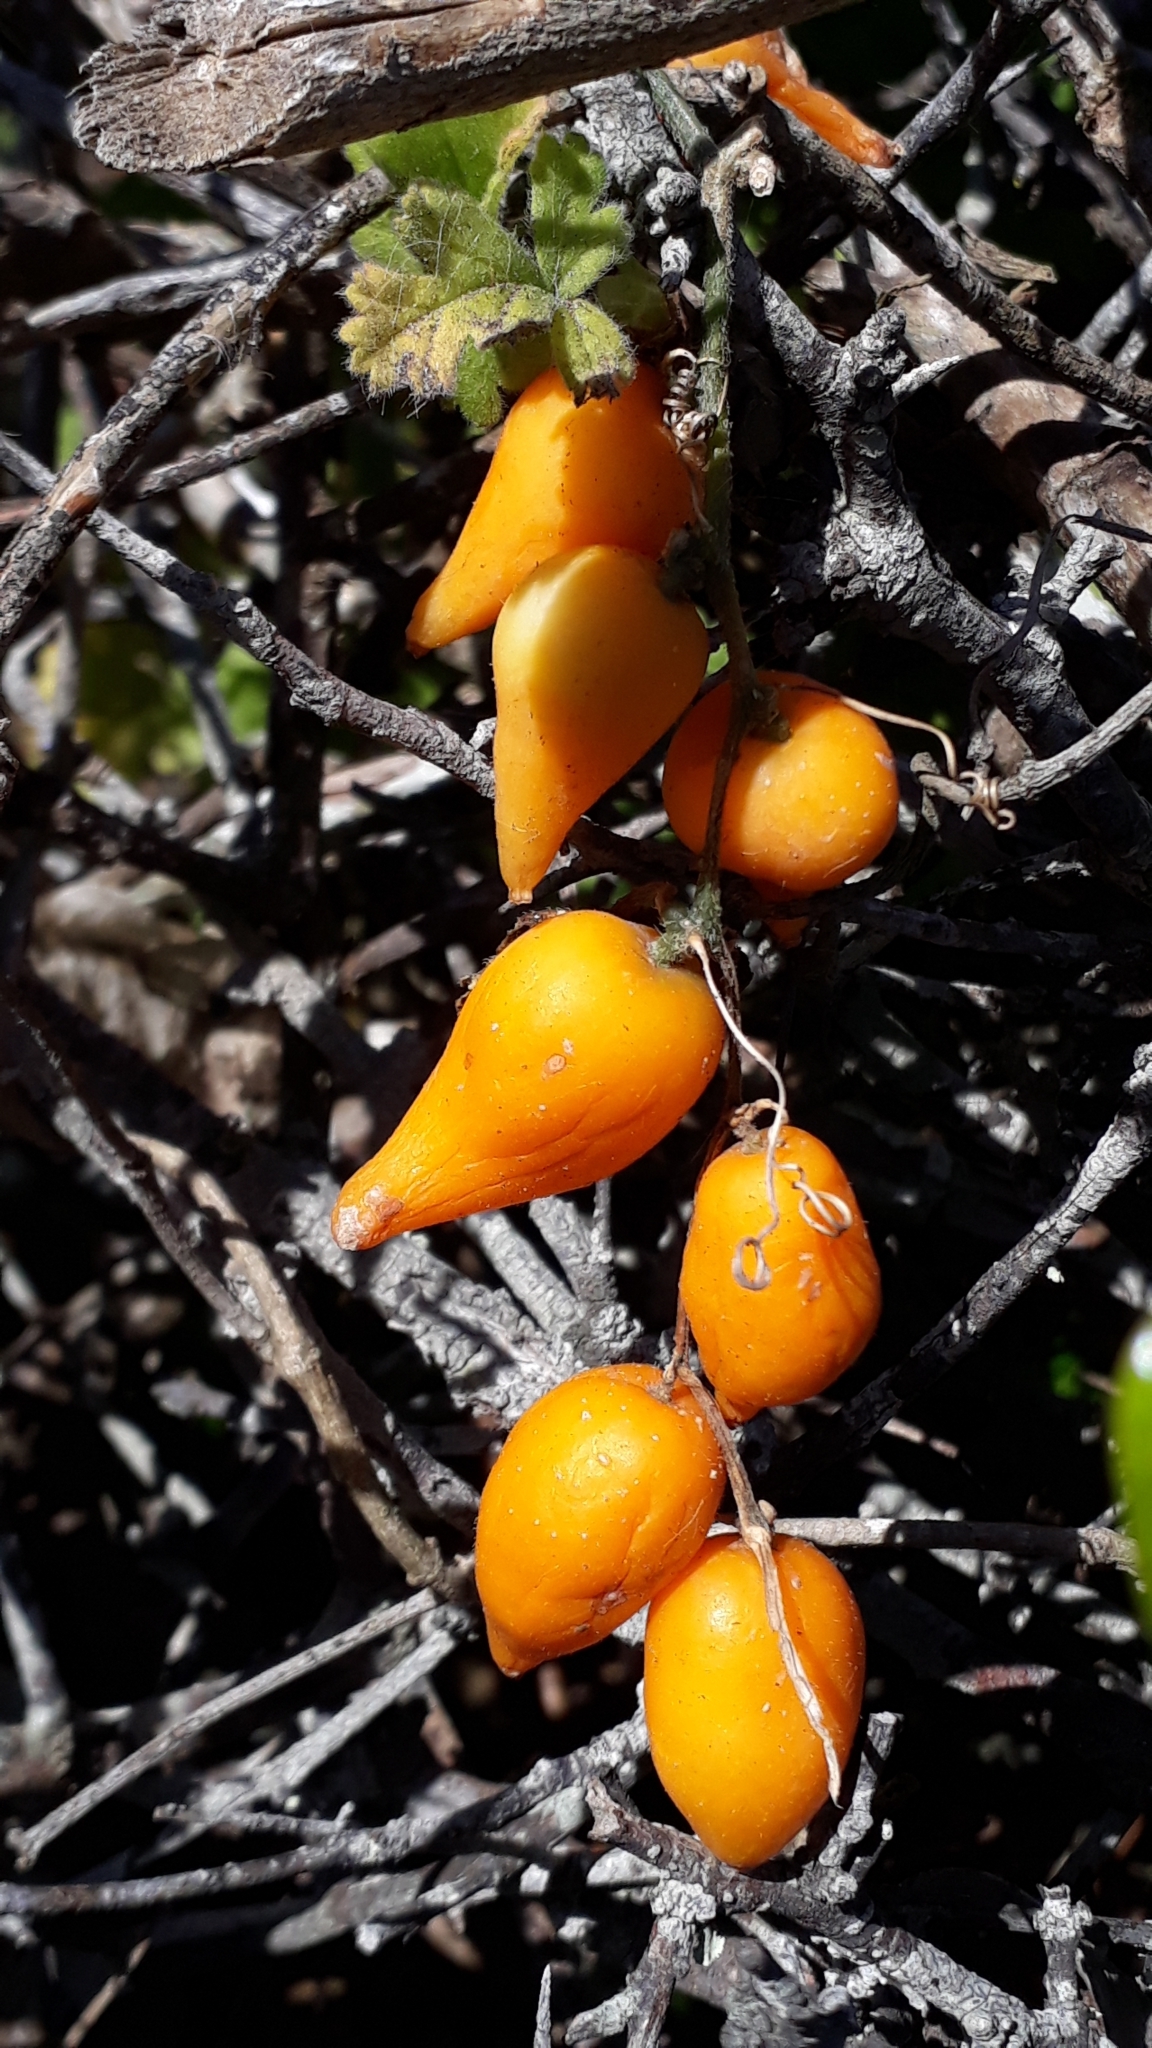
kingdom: Plantae
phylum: Tracheophyta
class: Magnoliopsida
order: Cucurbitales
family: Cucurbitaceae
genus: Kedrostis
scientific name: Kedrostis nana
